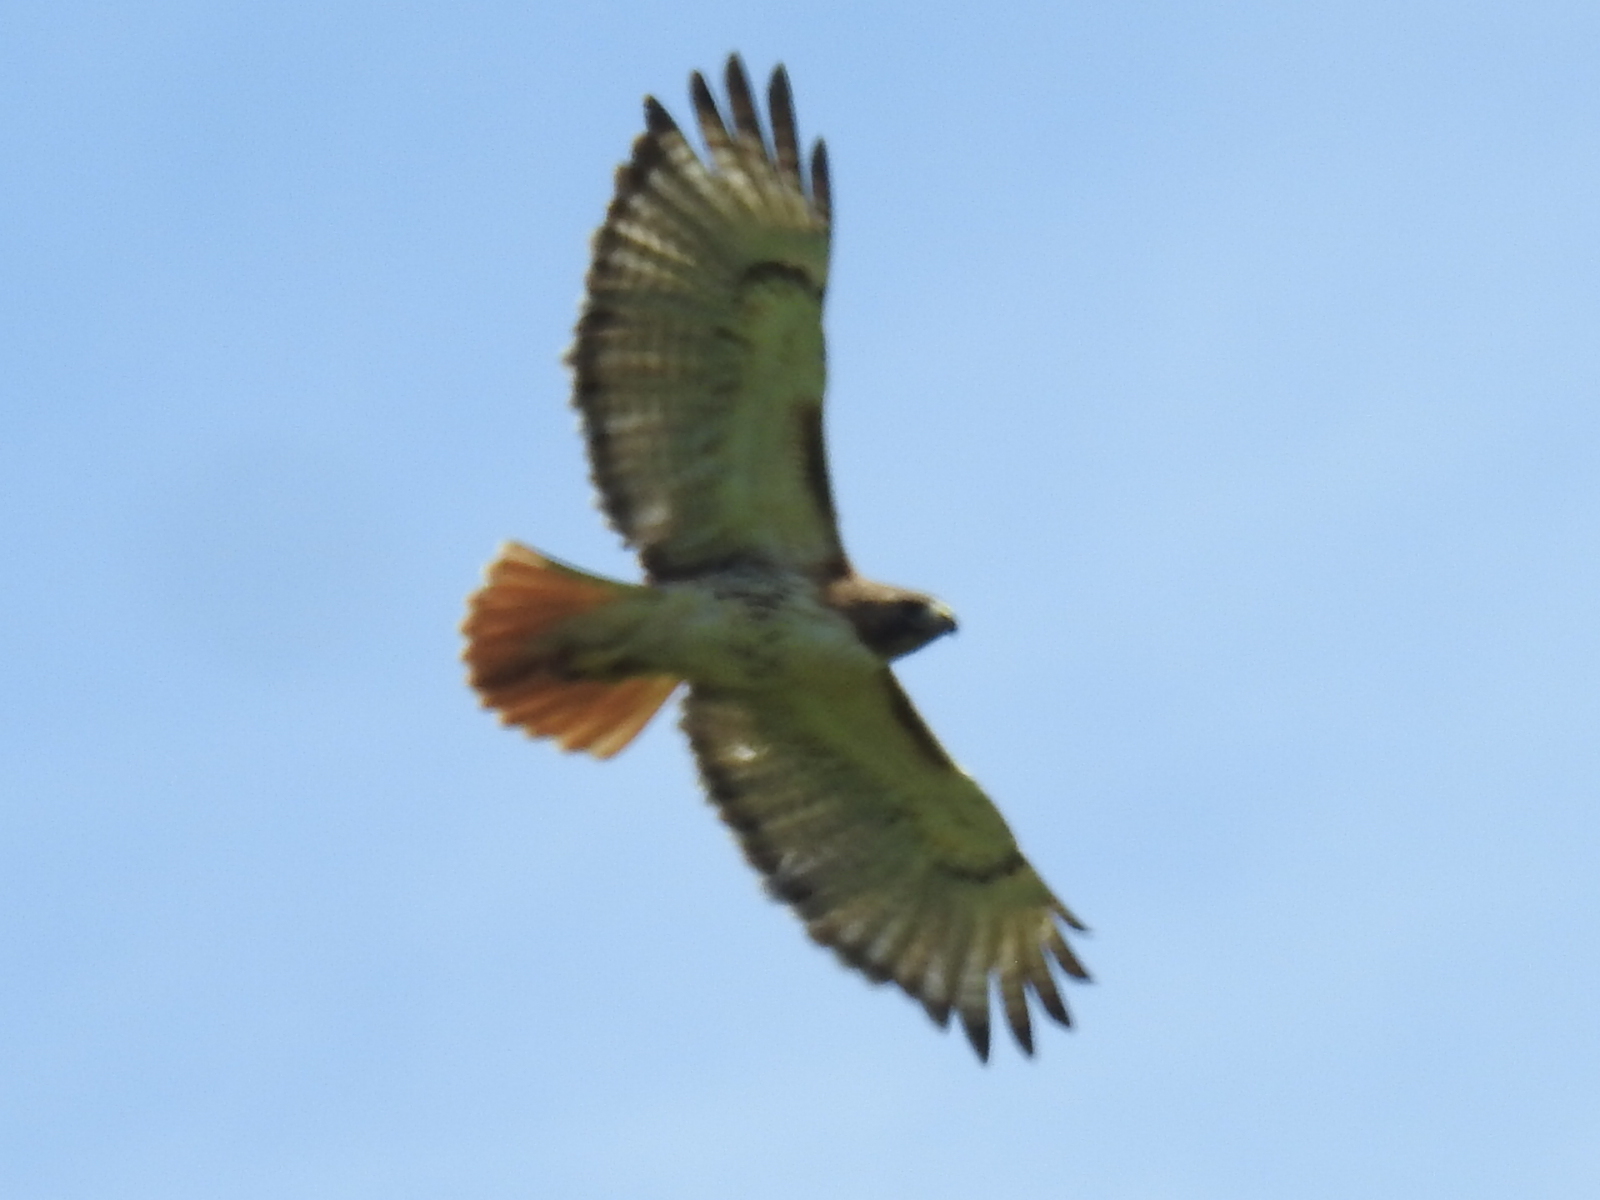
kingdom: Animalia
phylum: Chordata
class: Aves
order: Accipitriformes
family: Accipitridae
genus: Buteo
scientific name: Buteo jamaicensis
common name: Red-tailed hawk
